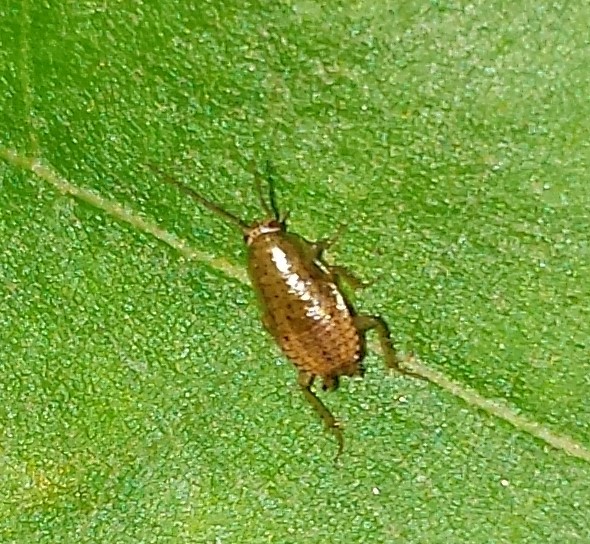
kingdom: Animalia
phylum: Arthropoda
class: Insecta
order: Blattodea
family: Ectobiidae
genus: Ectobius
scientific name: Ectobius pallidus
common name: Tawny cockroach
